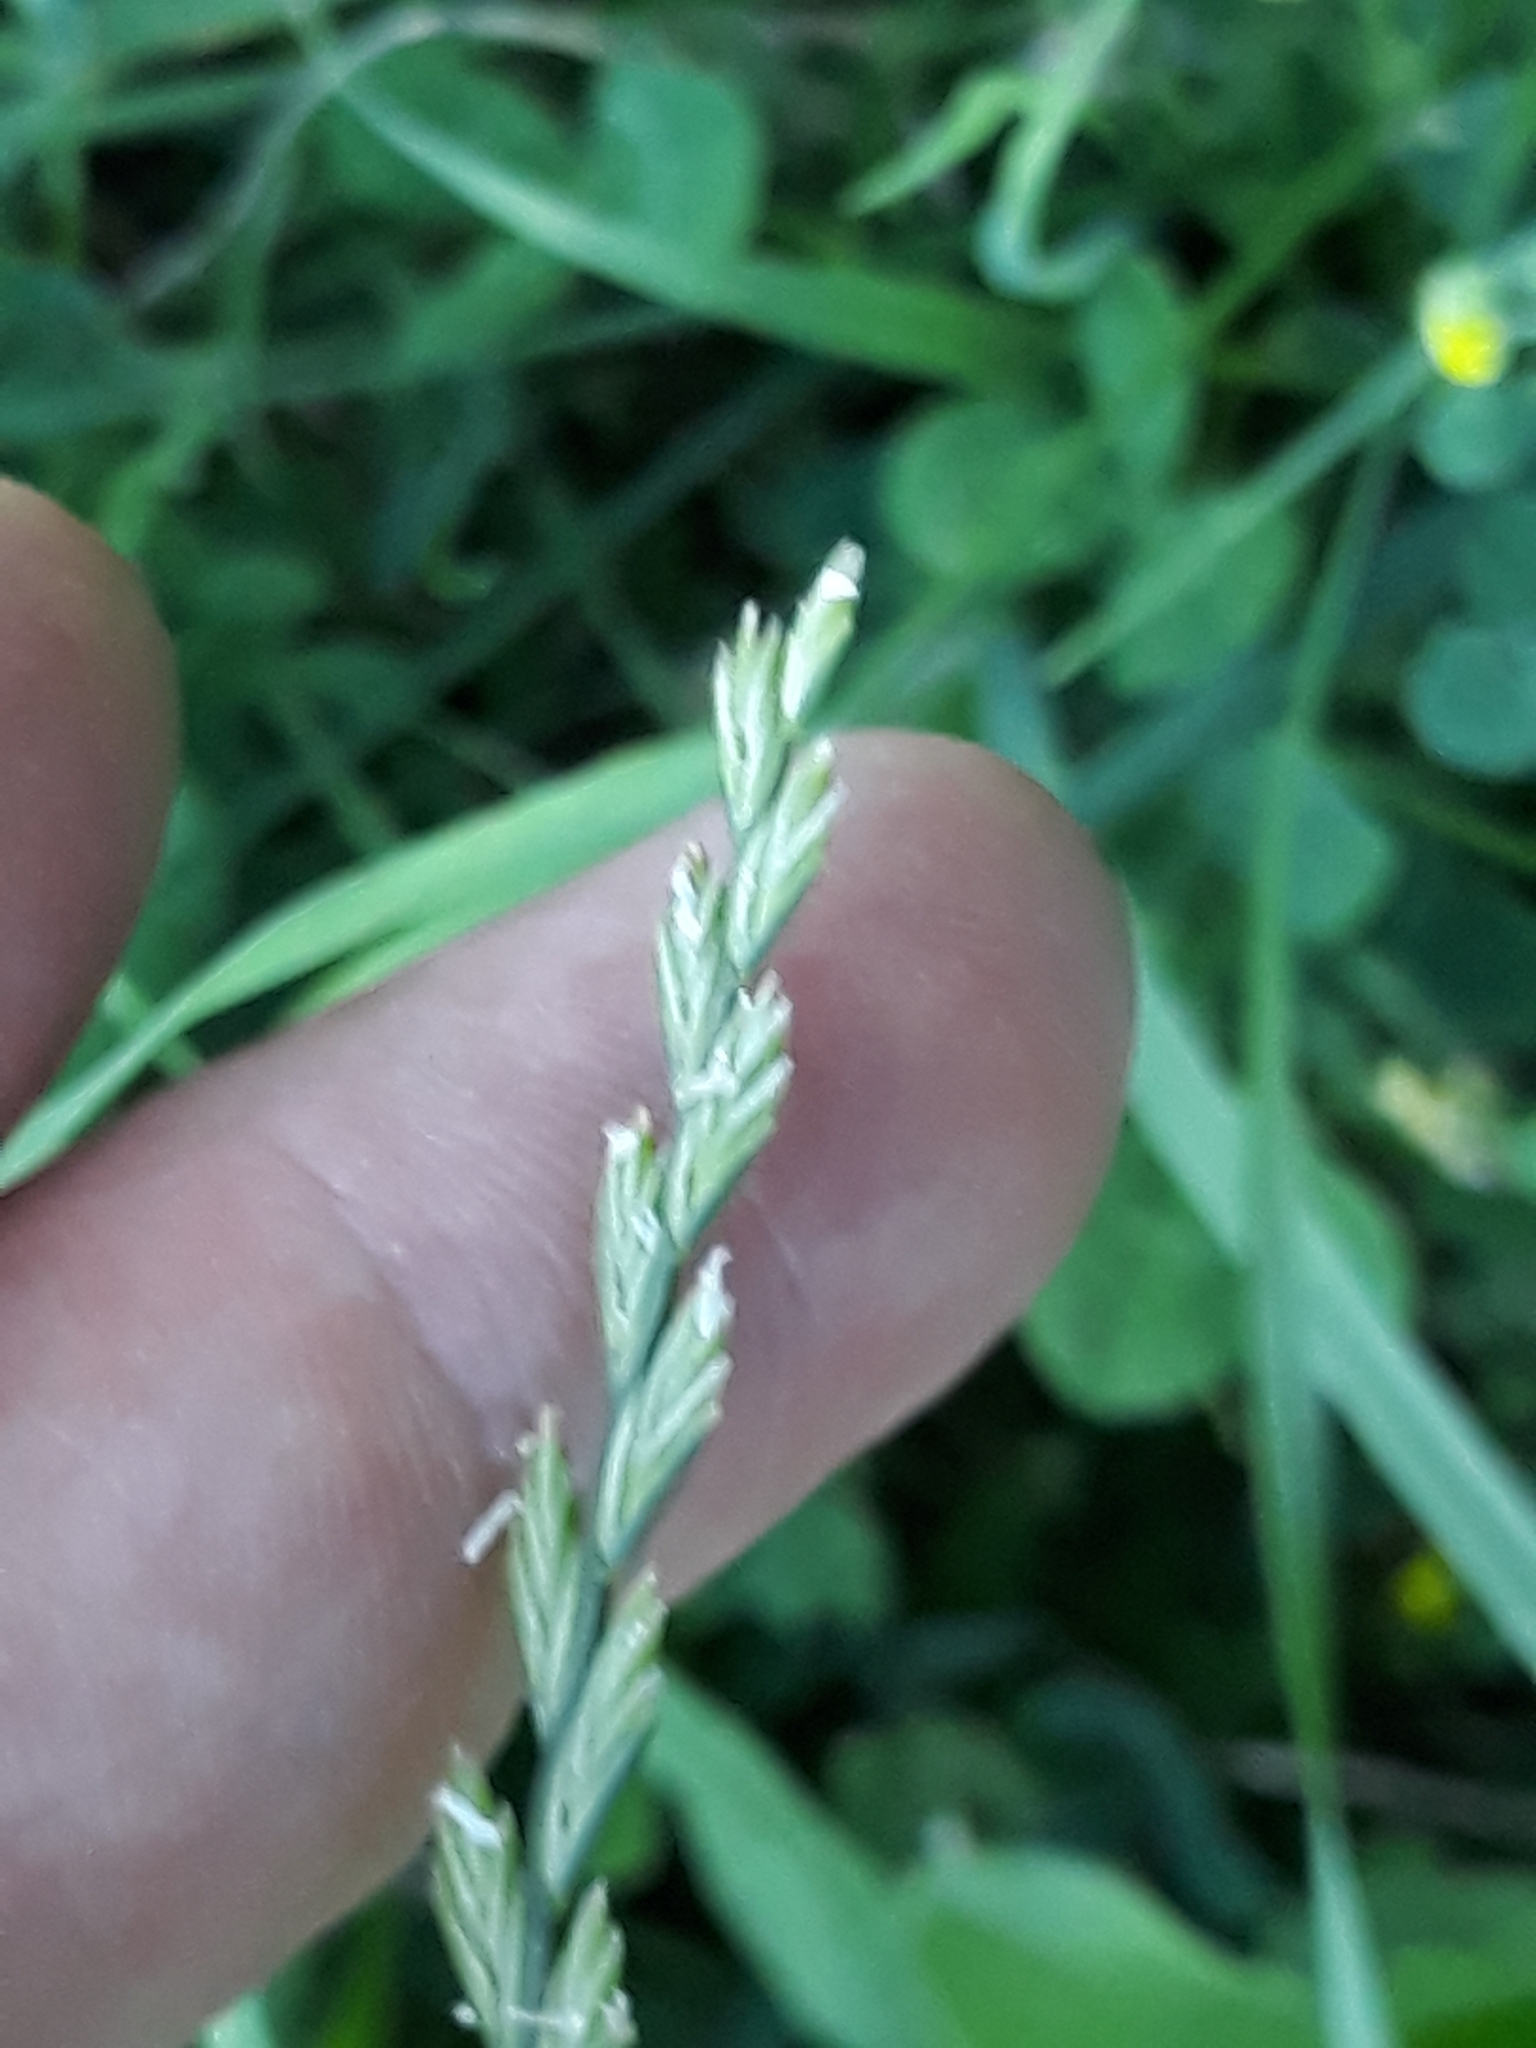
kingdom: Plantae
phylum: Tracheophyta
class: Liliopsida
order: Poales
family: Poaceae
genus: Lolium
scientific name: Lolium perenne
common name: Perennial ryegrass
